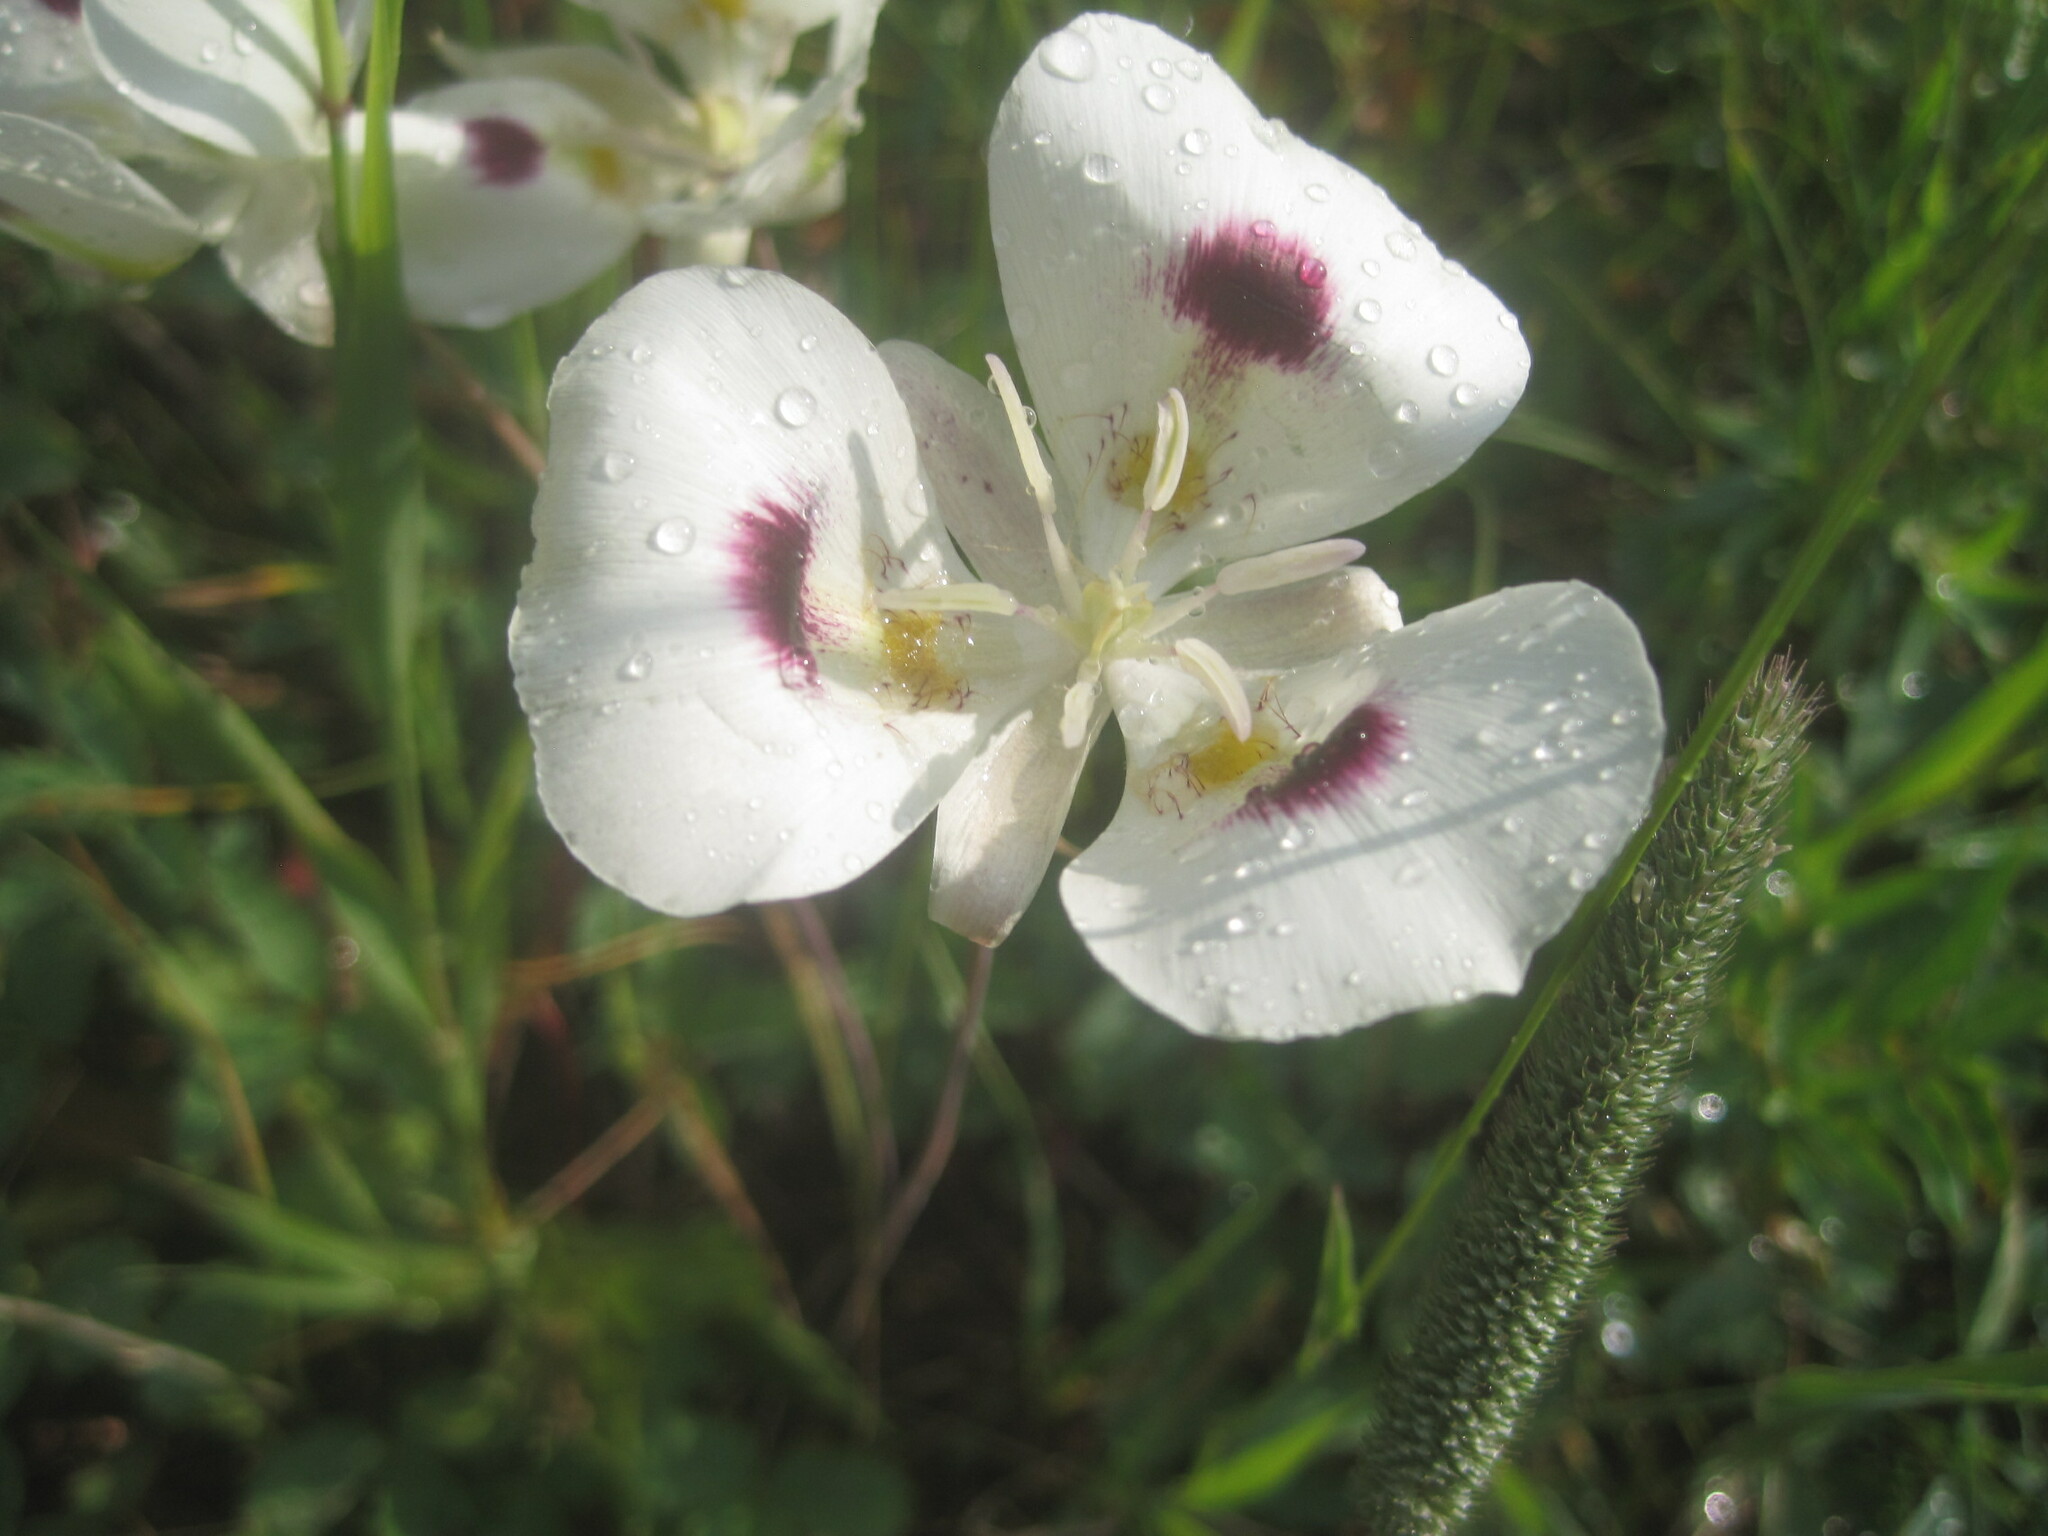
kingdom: Plantae
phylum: Tracheophyta
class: Liliopsida
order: Liliales
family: Liliaceae
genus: Calochortus
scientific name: Calochortus eurycarpus
